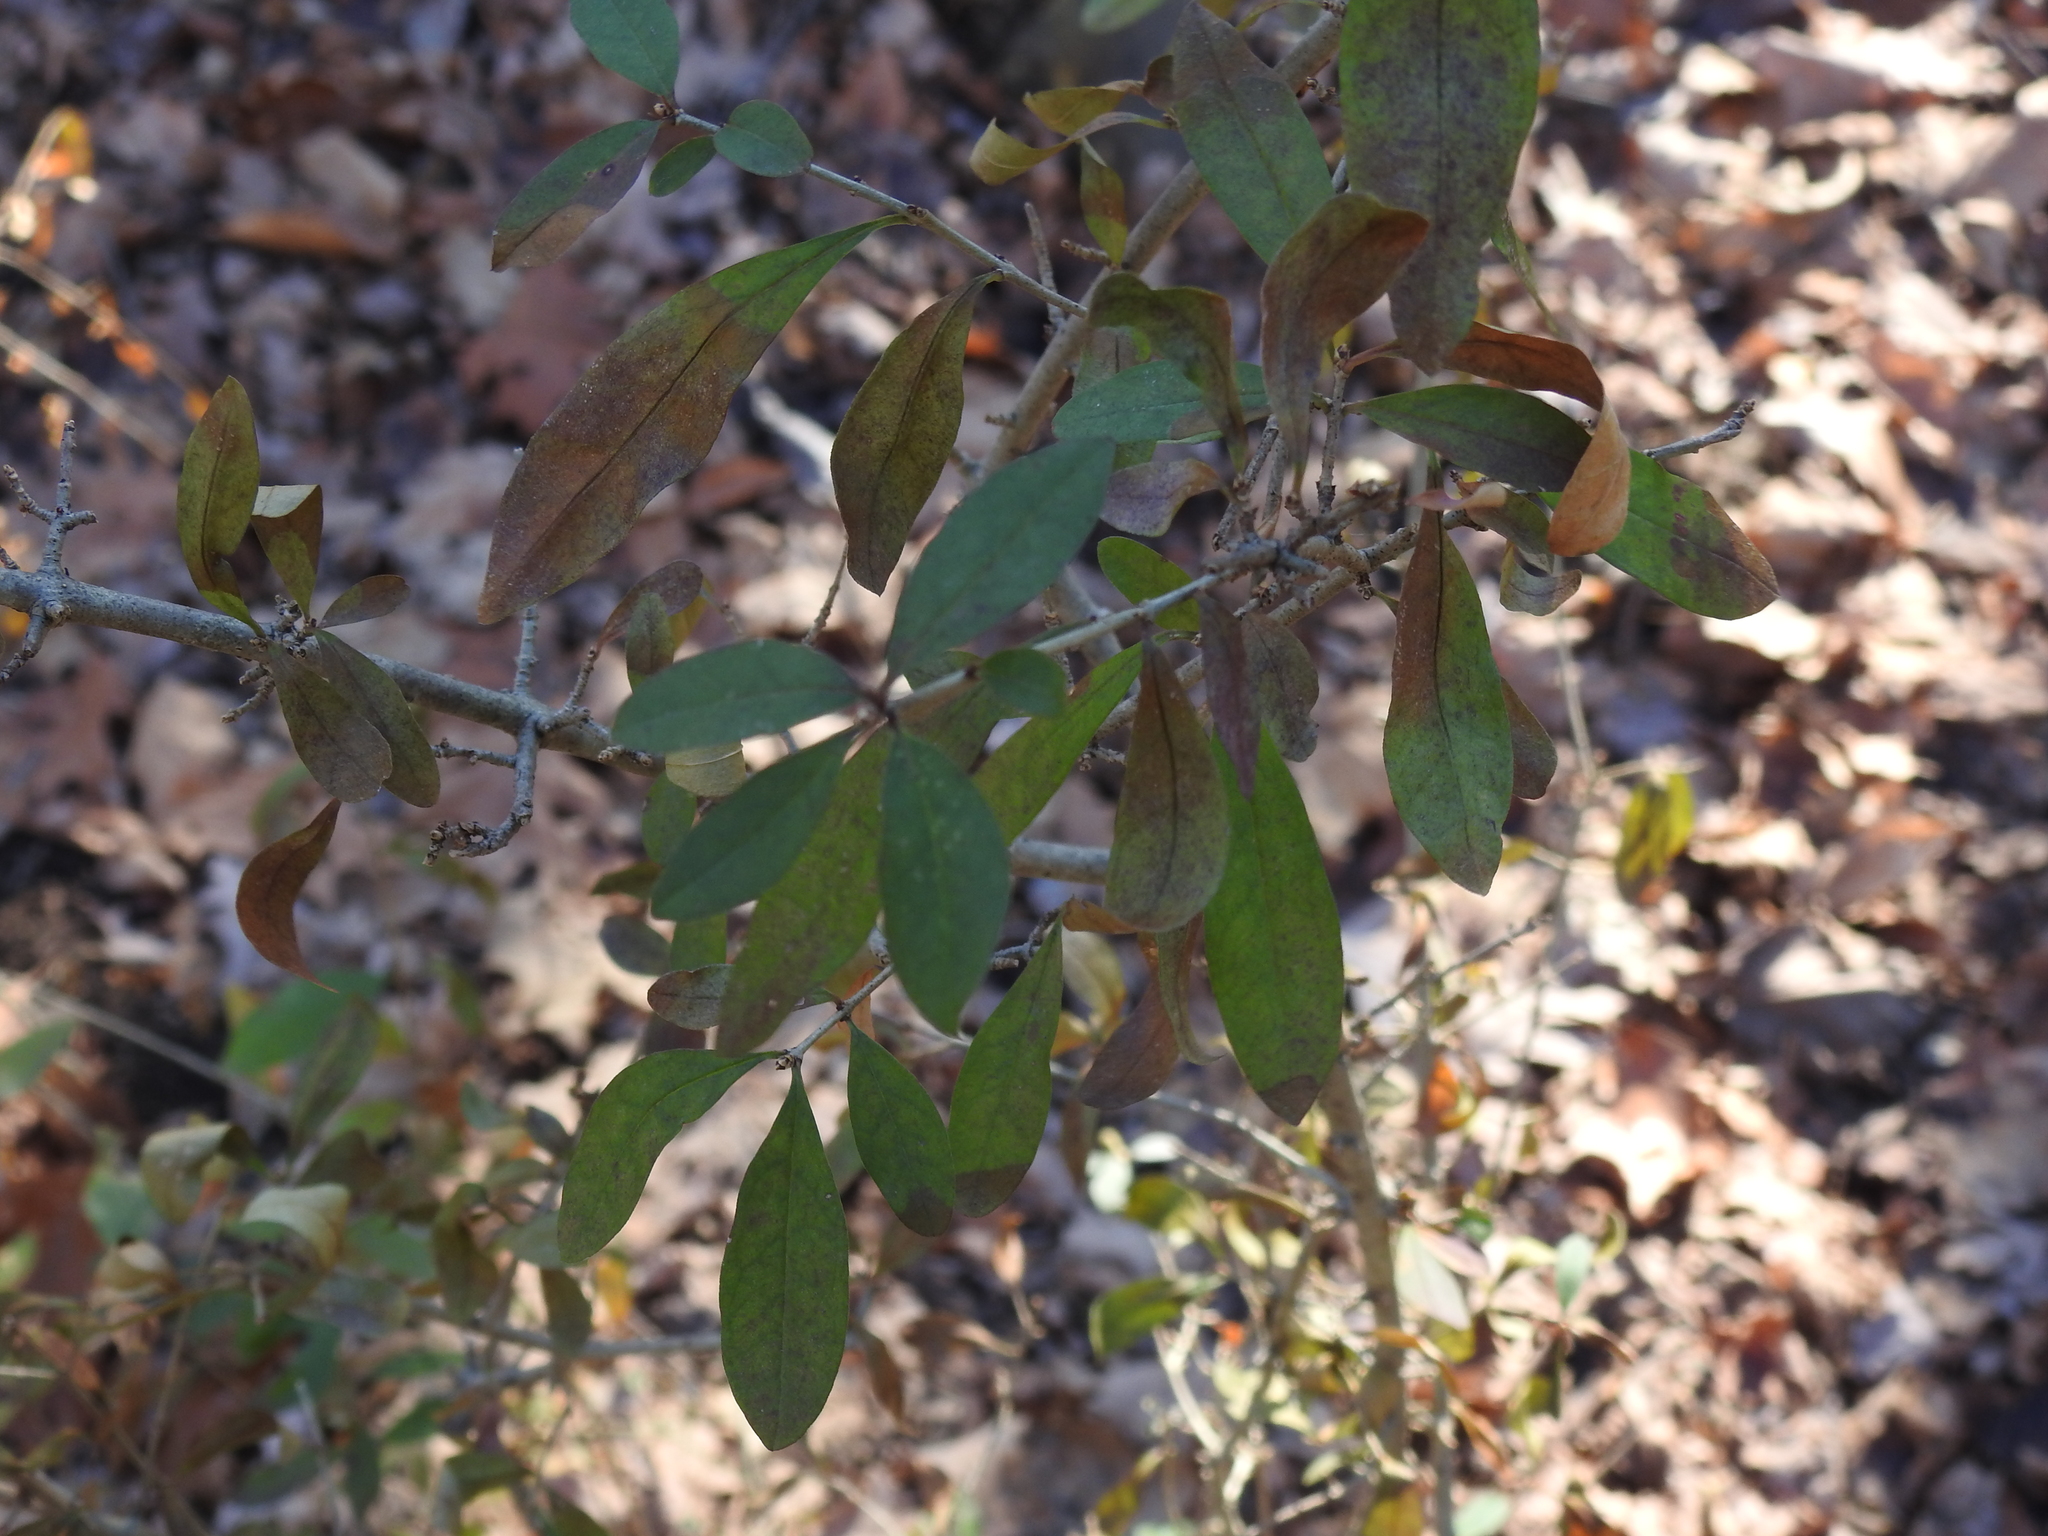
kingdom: Plantae
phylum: Tracheophyta
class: Magnoliopsida
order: Lamiales
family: Oleaceae
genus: Ligustrum
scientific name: Ligustrum obtusifolium
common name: Border privet
